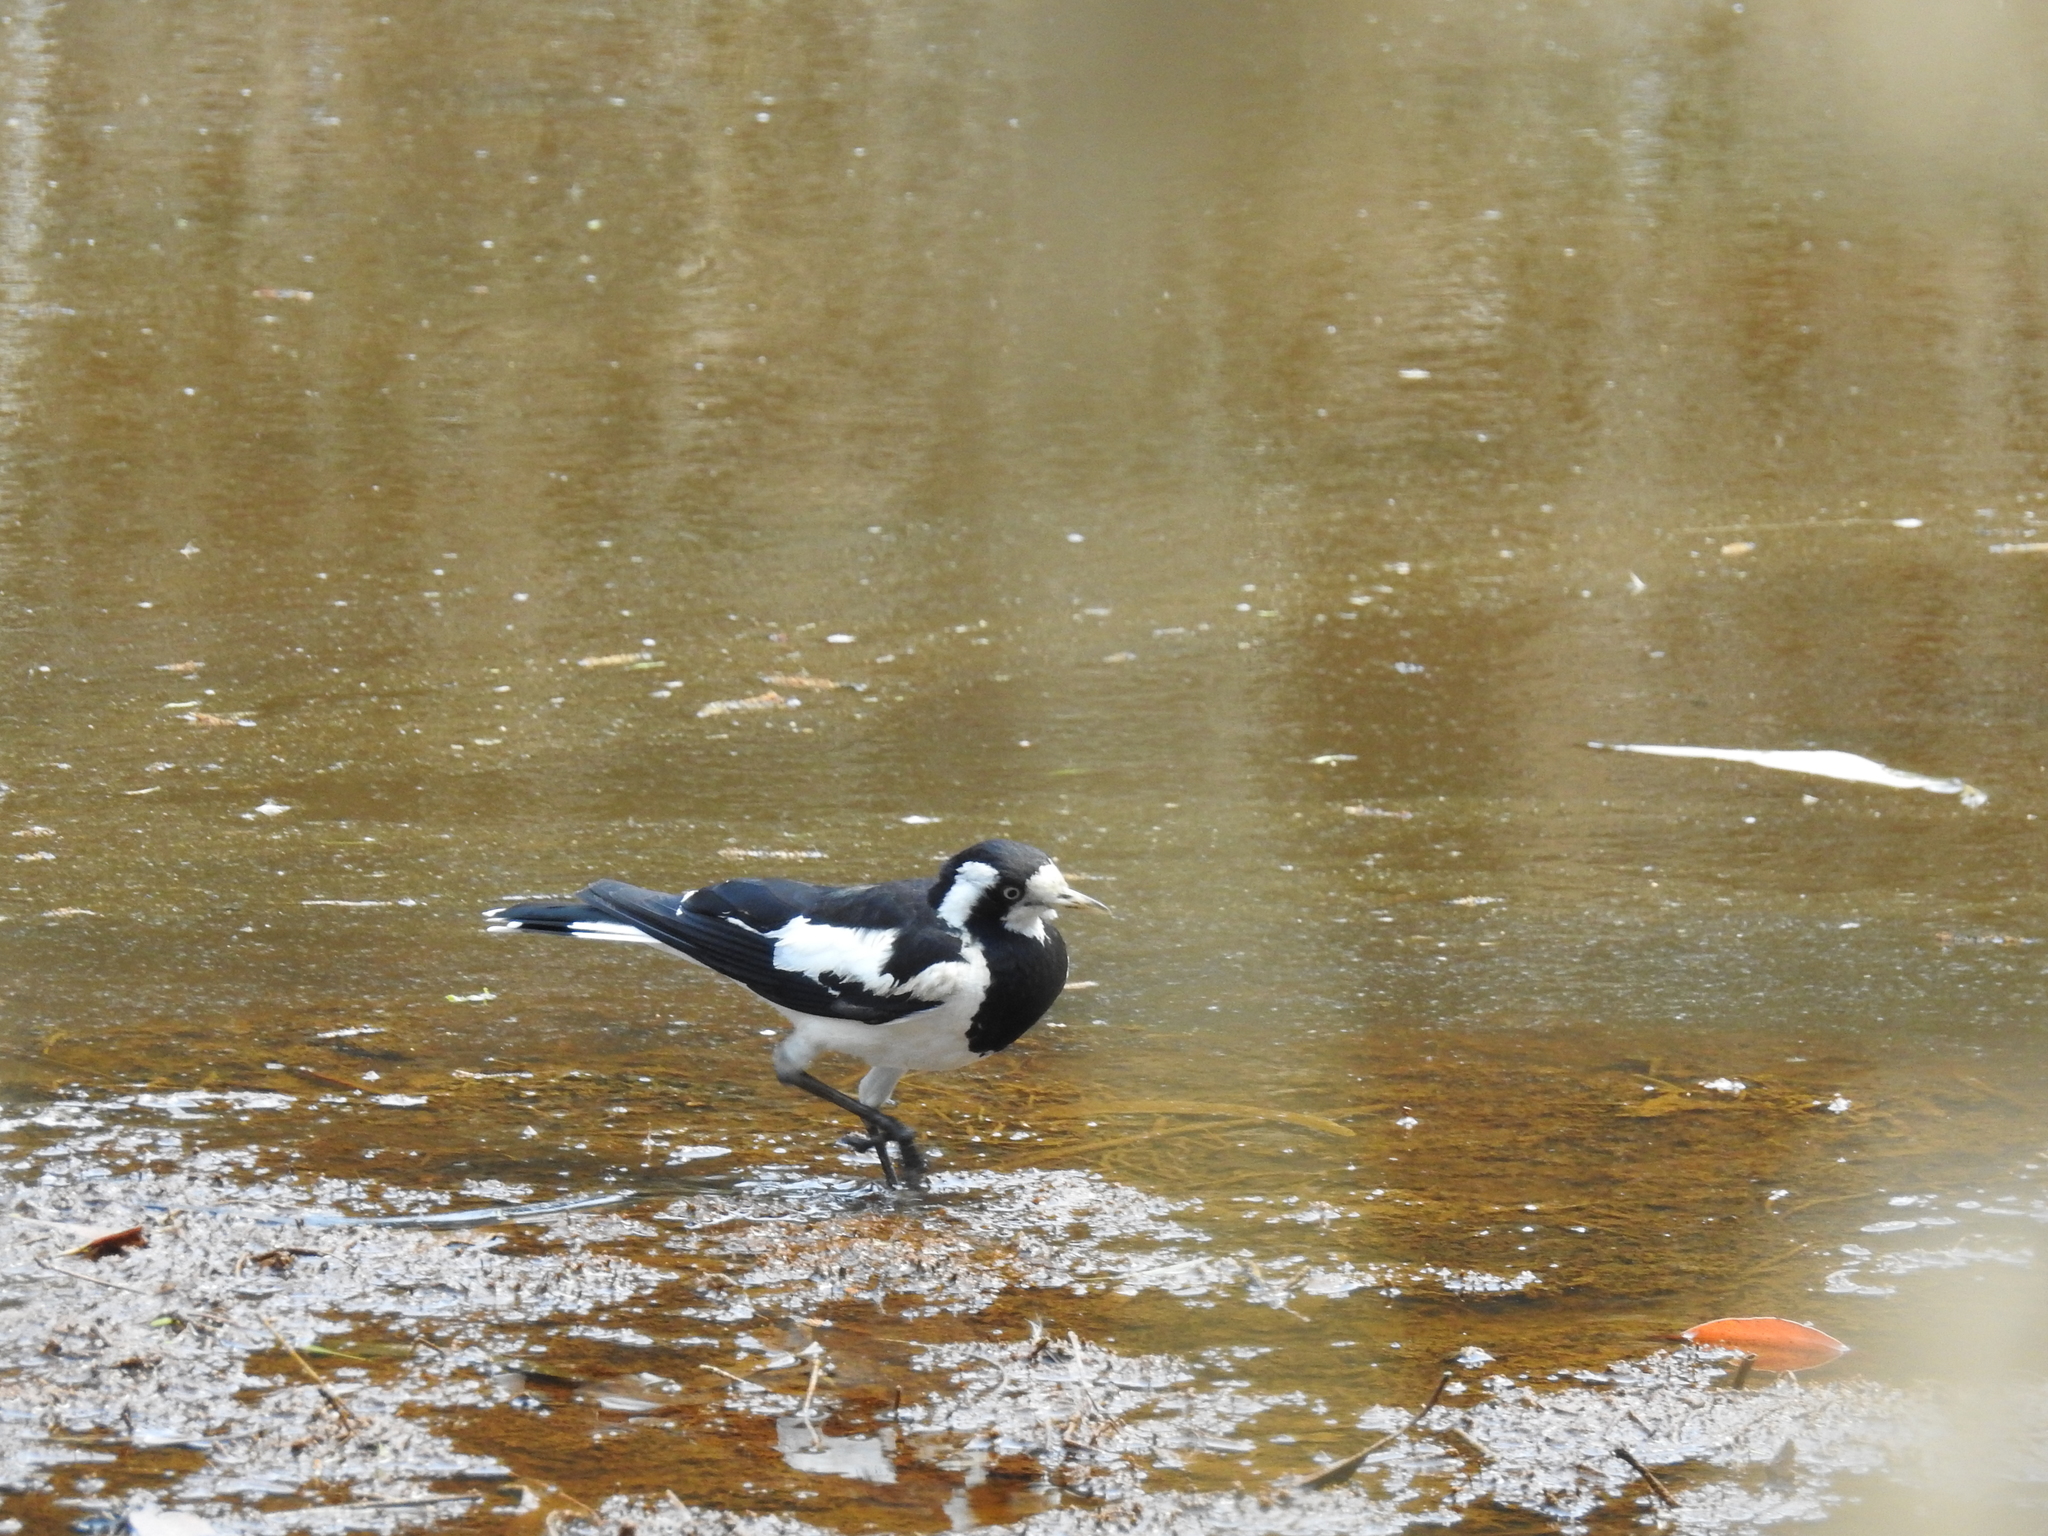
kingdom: Animalia
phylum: Chordata
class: Aves
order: Passeriformes
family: Monarchidae
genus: Grallina
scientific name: Grallina cyanoleuca
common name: Magpie-lark
